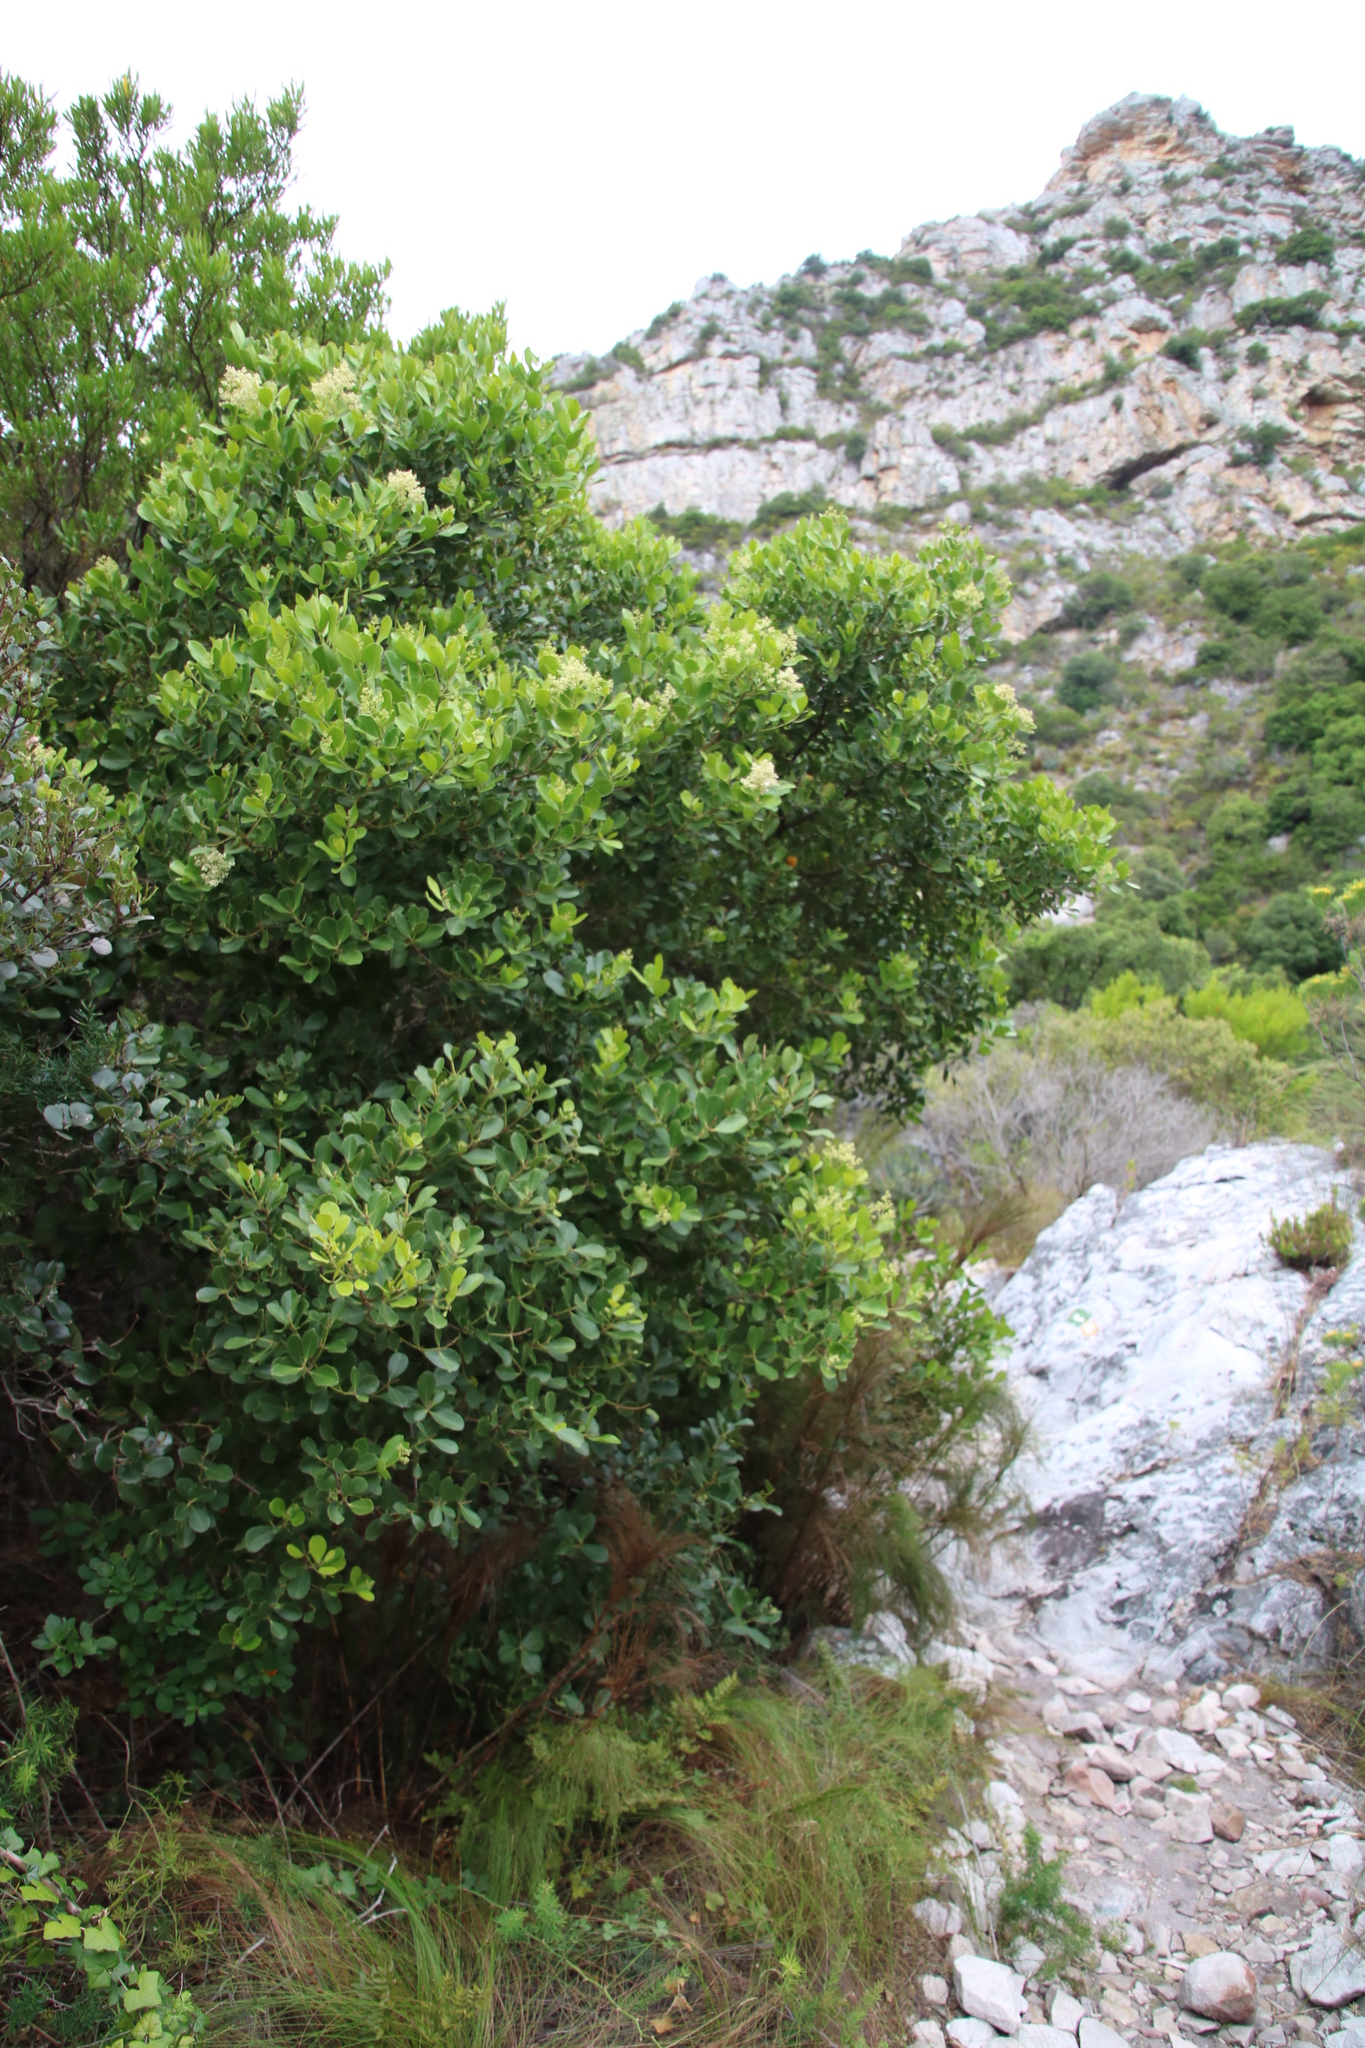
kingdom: Plantae
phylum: Tracheophyta
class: Magnoliopsida
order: Celastrales
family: Celastraceae
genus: Cassine
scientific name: Cassine peragua
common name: Cape saffron
